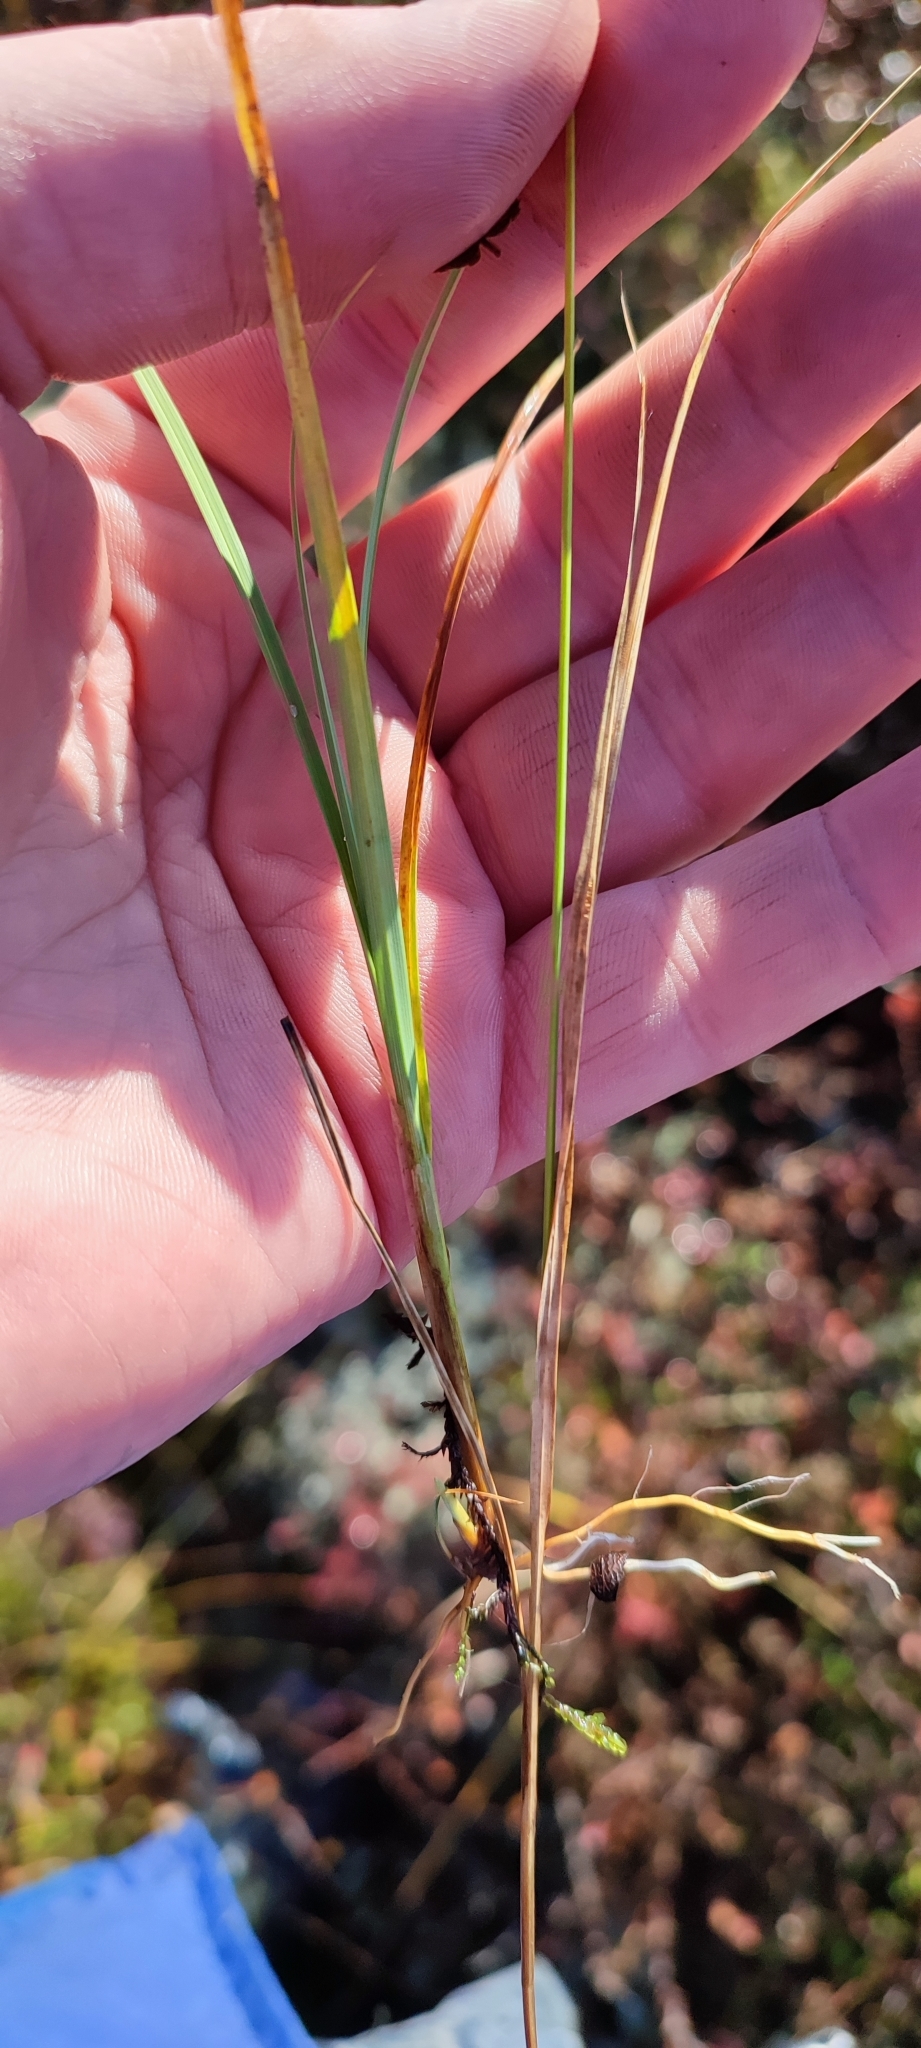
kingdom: Plantae
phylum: Tracheophyta
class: Liliopsida
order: Poales
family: Cyperaceae
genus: Carex
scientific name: Carex brunnescens
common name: Brown sedge
